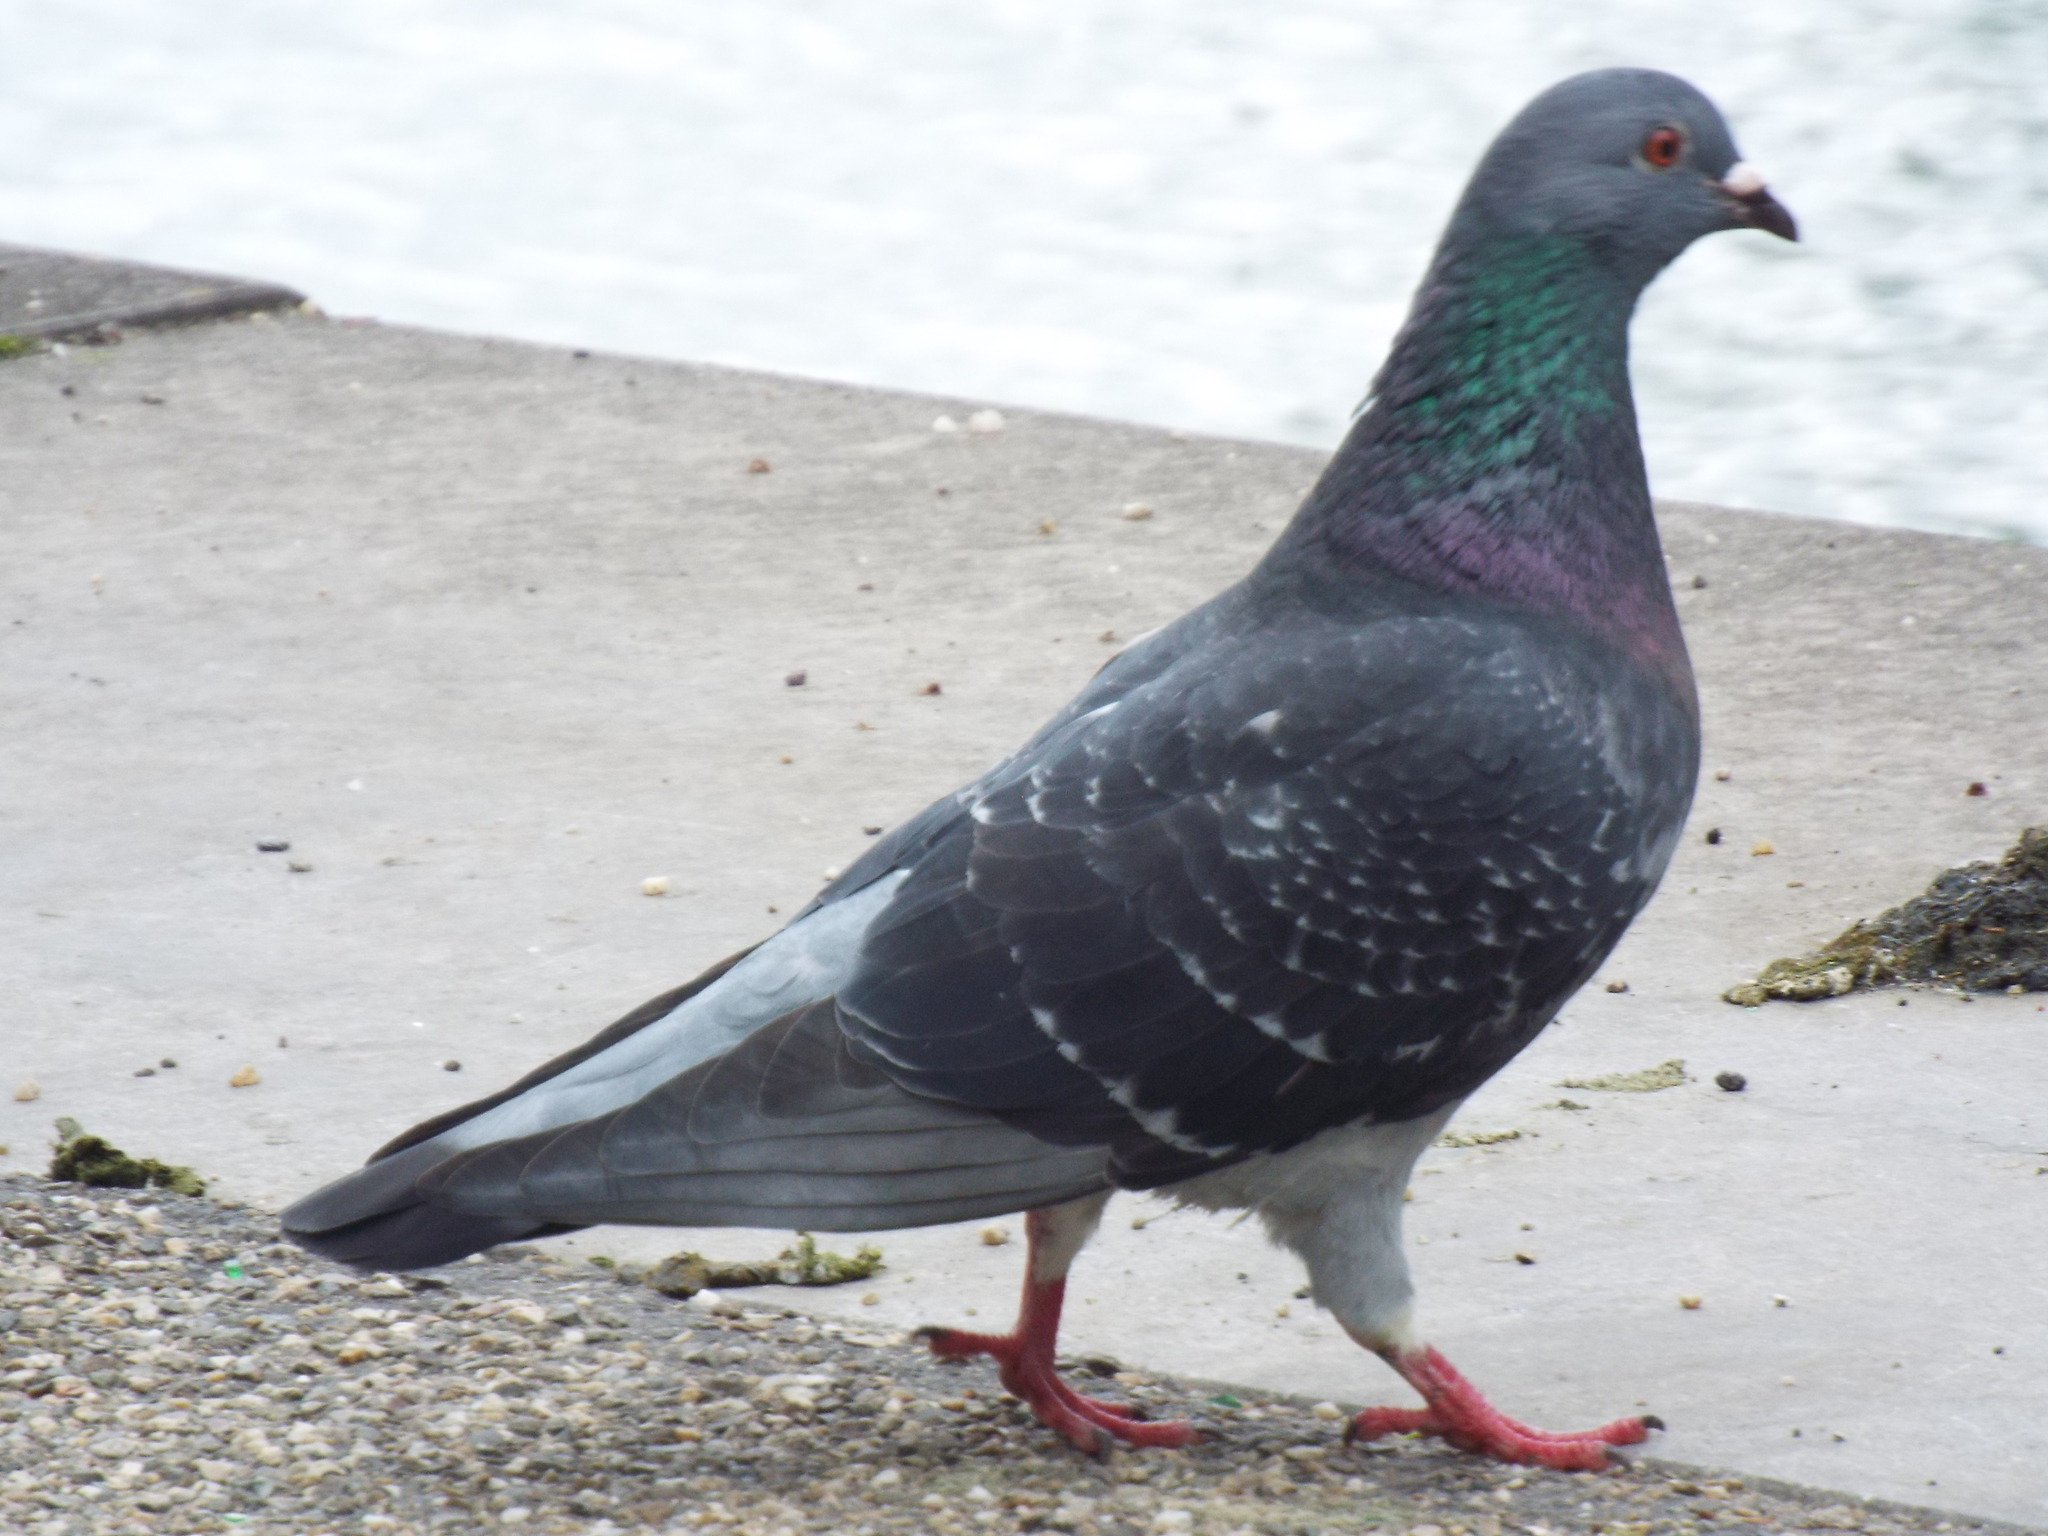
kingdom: Animalia
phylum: Chordata
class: Aves
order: Columbiformes
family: Columbidae
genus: Columba
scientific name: Columba livia
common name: Rock pigeon
